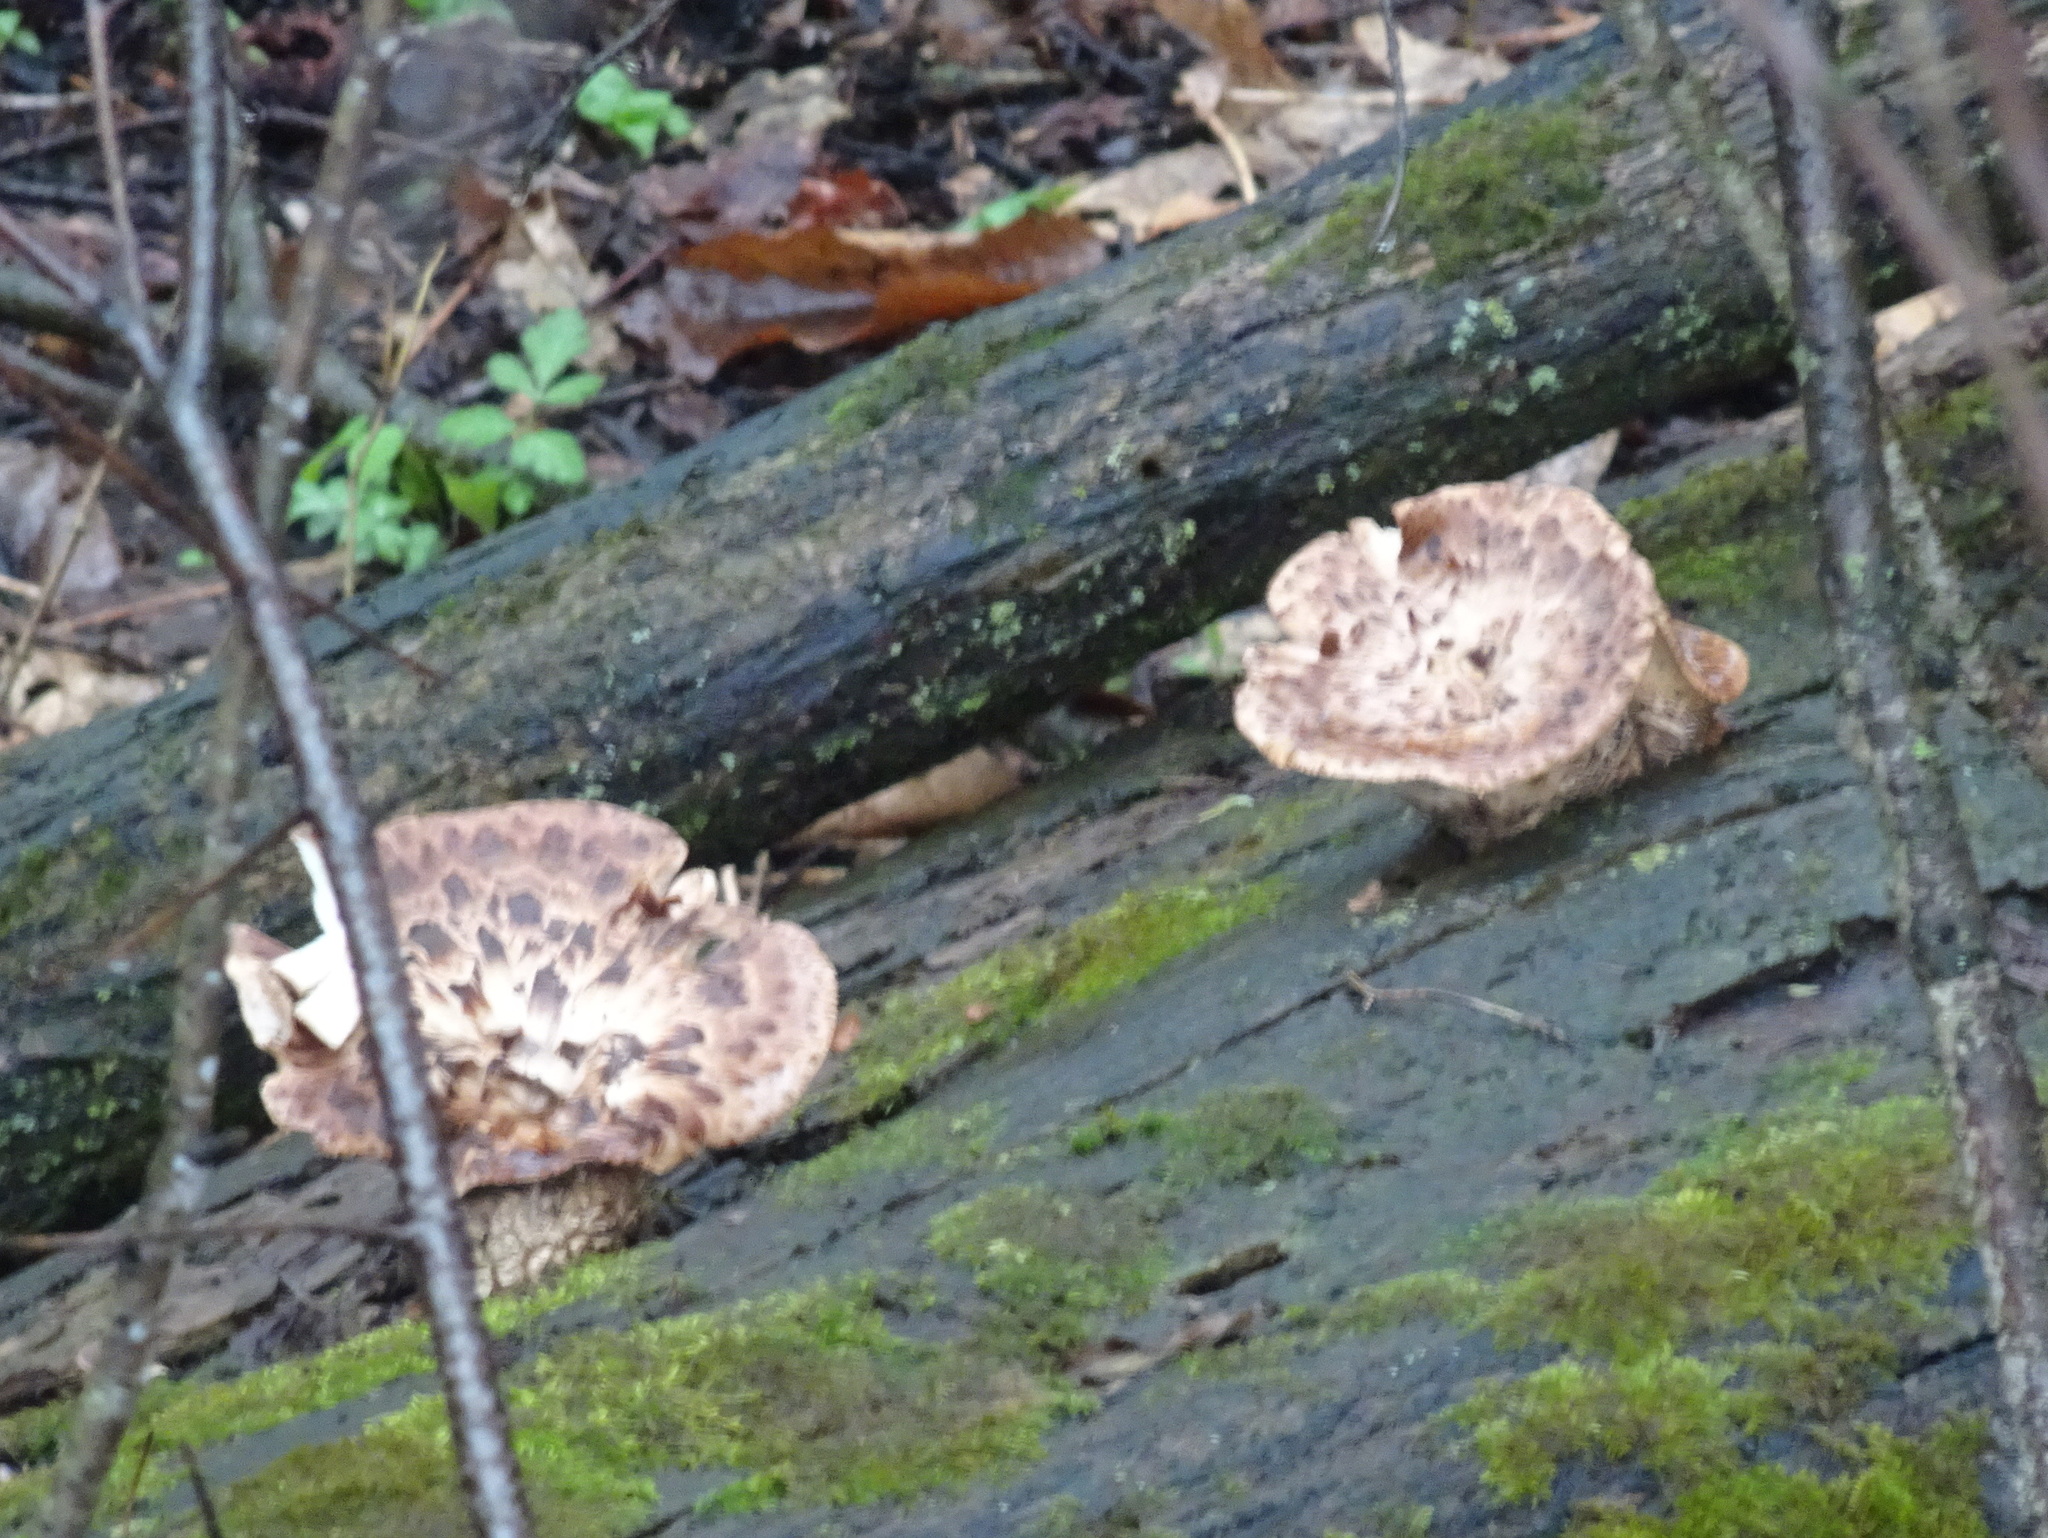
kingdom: Fungi
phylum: Basidiomycota
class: Agaricomycetes
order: Polyporales
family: Polyporaceae
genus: Cerioporus
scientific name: Cerioporus squamosus
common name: Dryad's saddle
